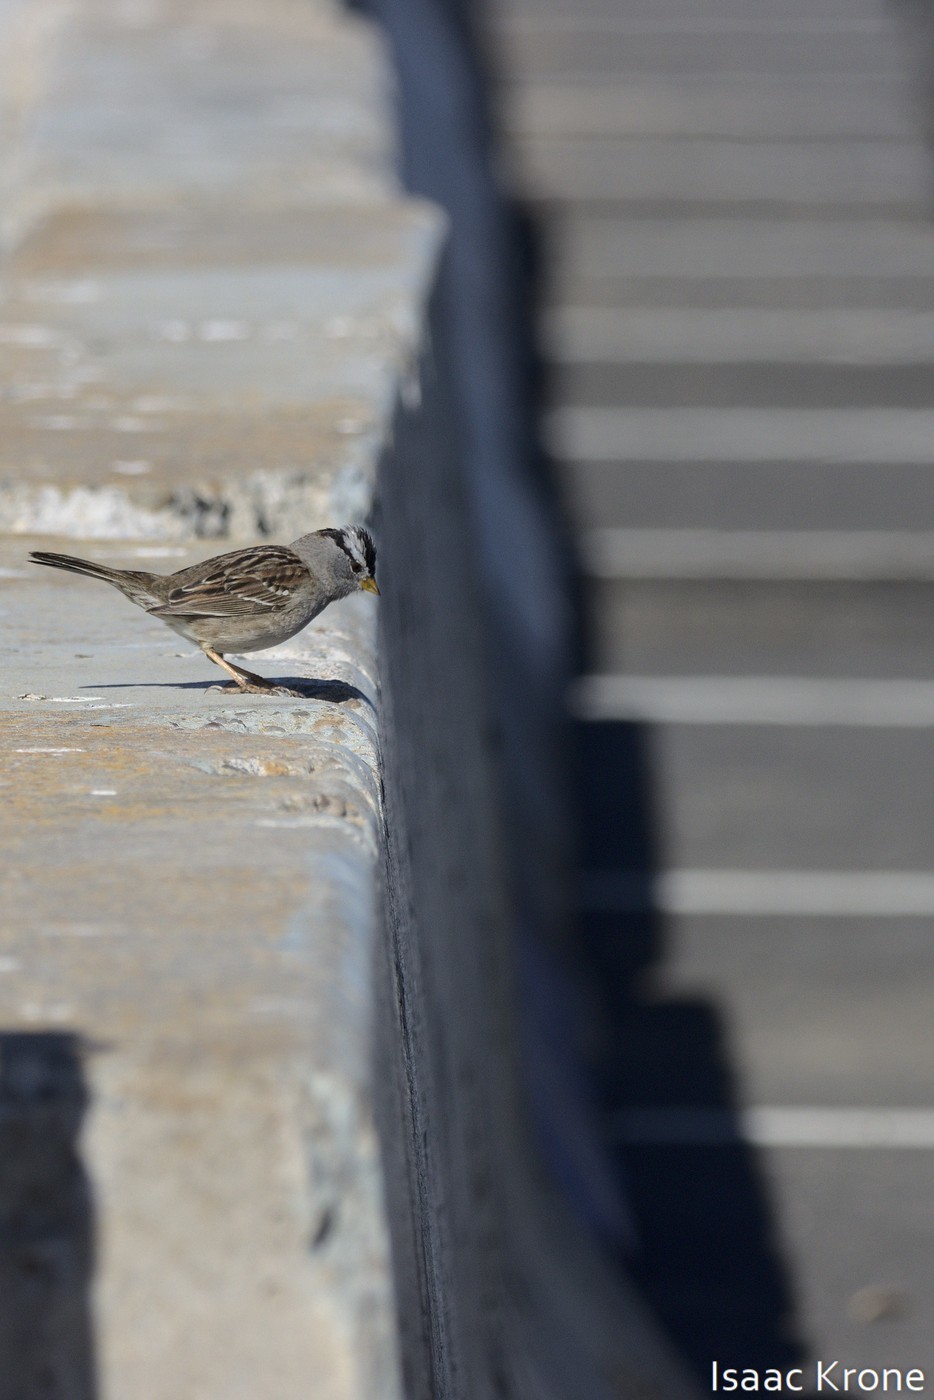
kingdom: Animalia
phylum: Chordata
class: Aves
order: Passeriformes
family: Passerellidae
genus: Zonotrichia
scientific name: Zonotrichia leucophrys
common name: White-crowned sparrow
